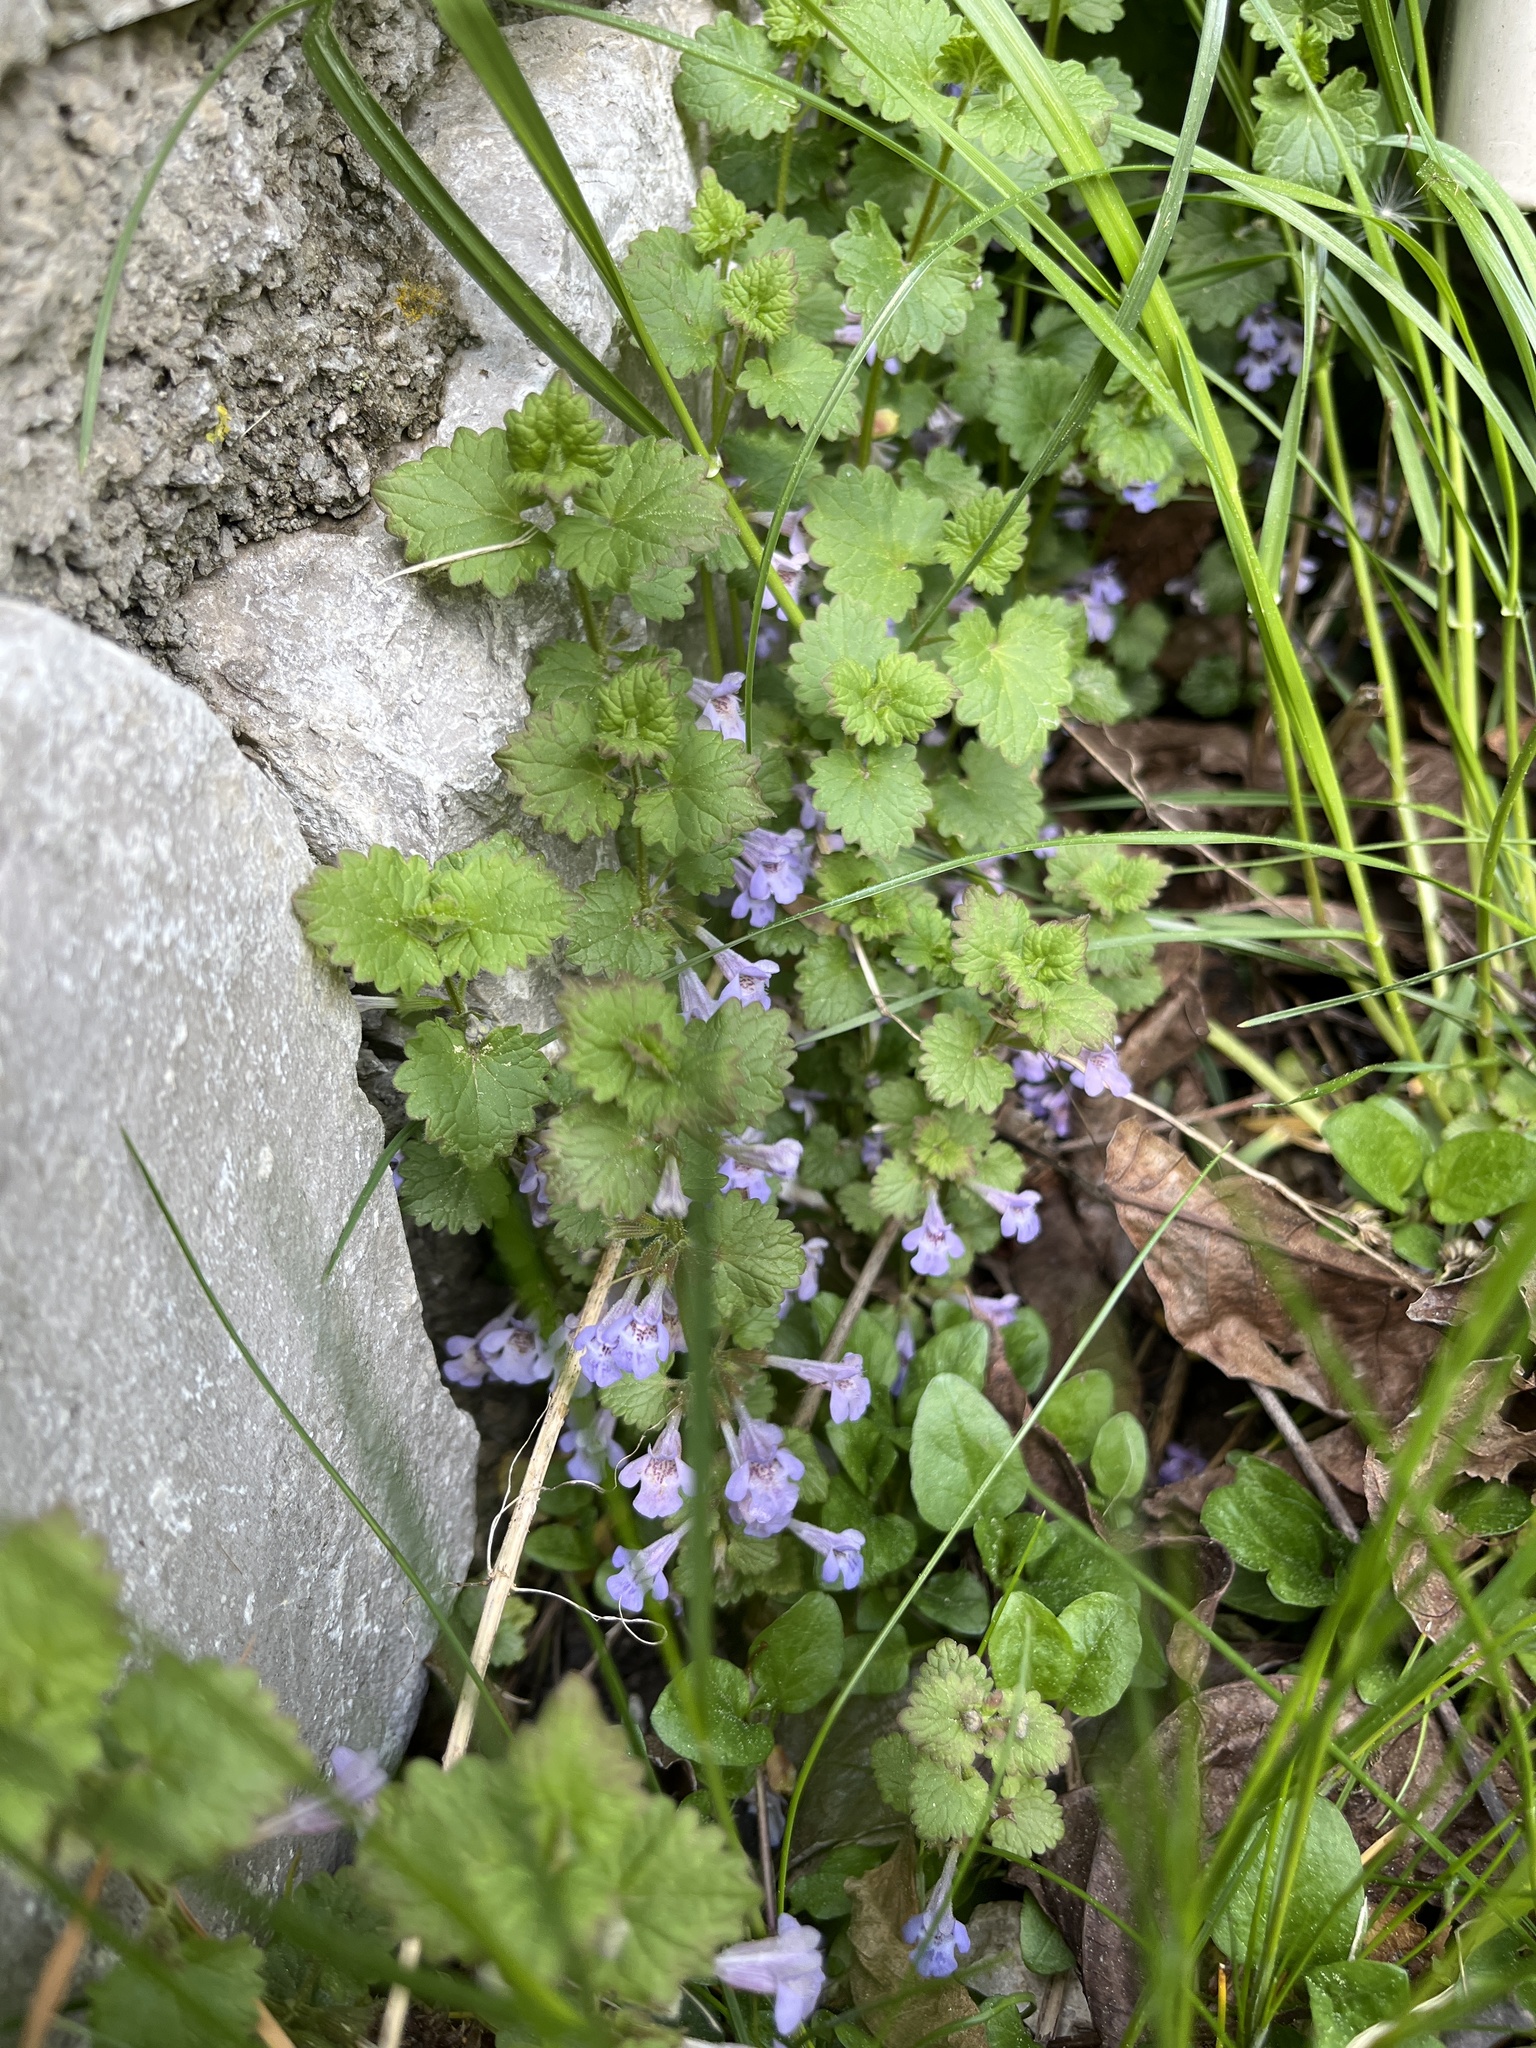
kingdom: Plantae
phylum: Tracheophyta
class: Magnoliopsida
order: Lamiales
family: Lamiaceae
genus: Glechoma
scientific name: Glechoma hederacea
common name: Ground ivy
